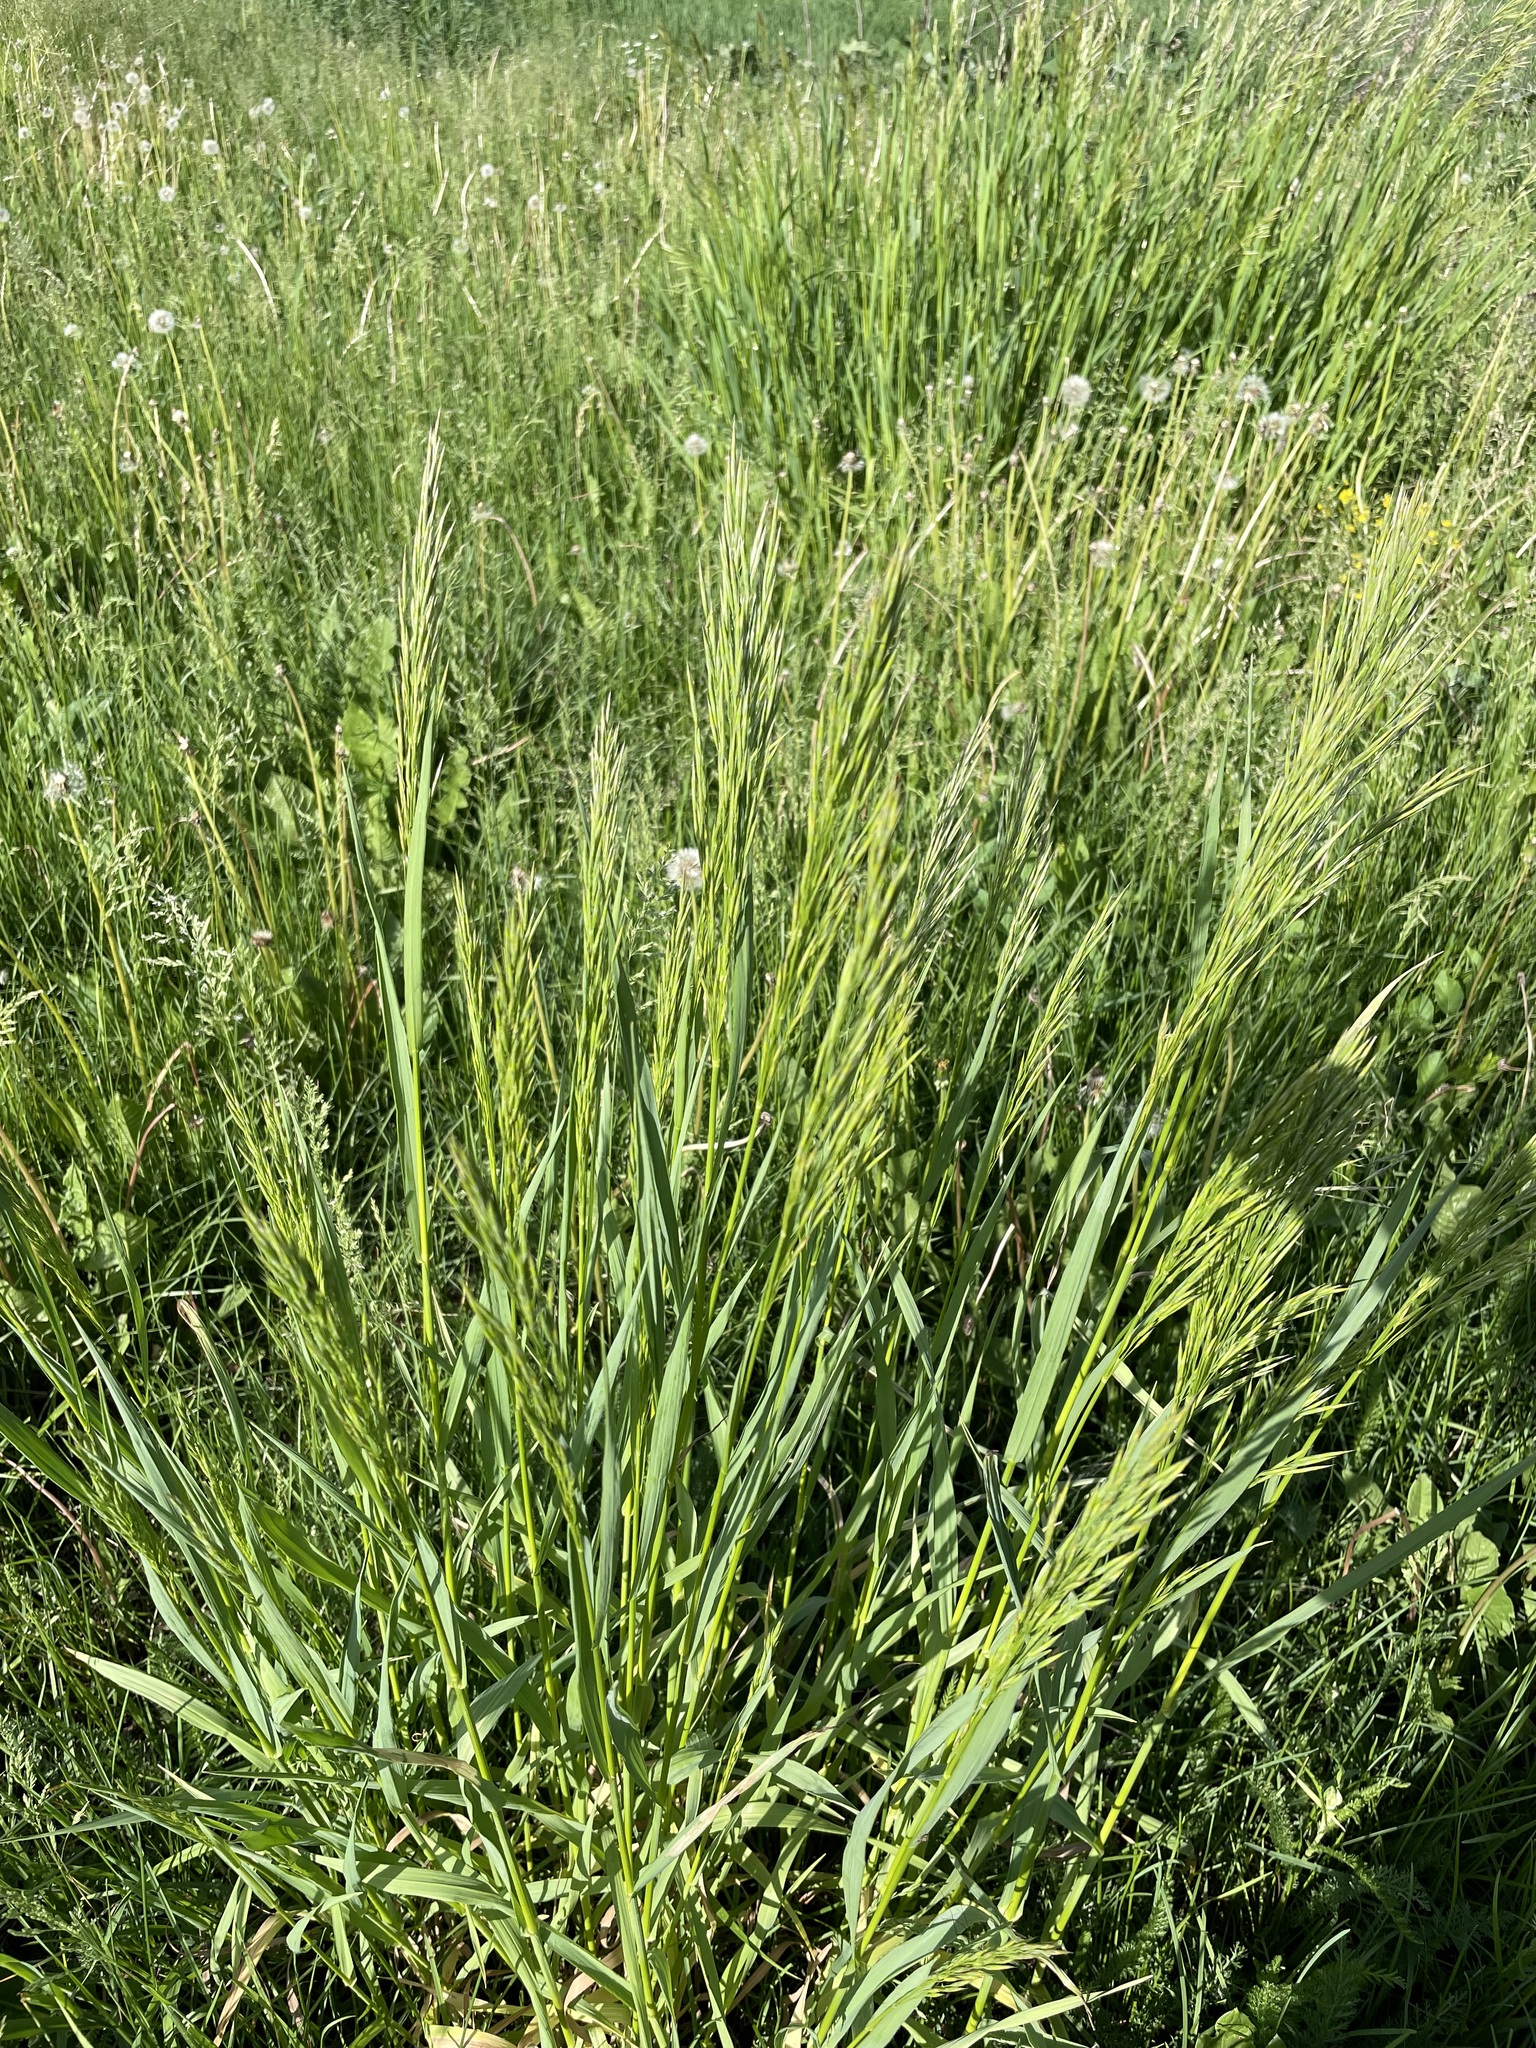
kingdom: Plantae
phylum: Tracheophyta
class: Liliopsida
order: Poales
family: Poaceae
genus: Bromus
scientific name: Bromus inermis
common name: Smooth brome
